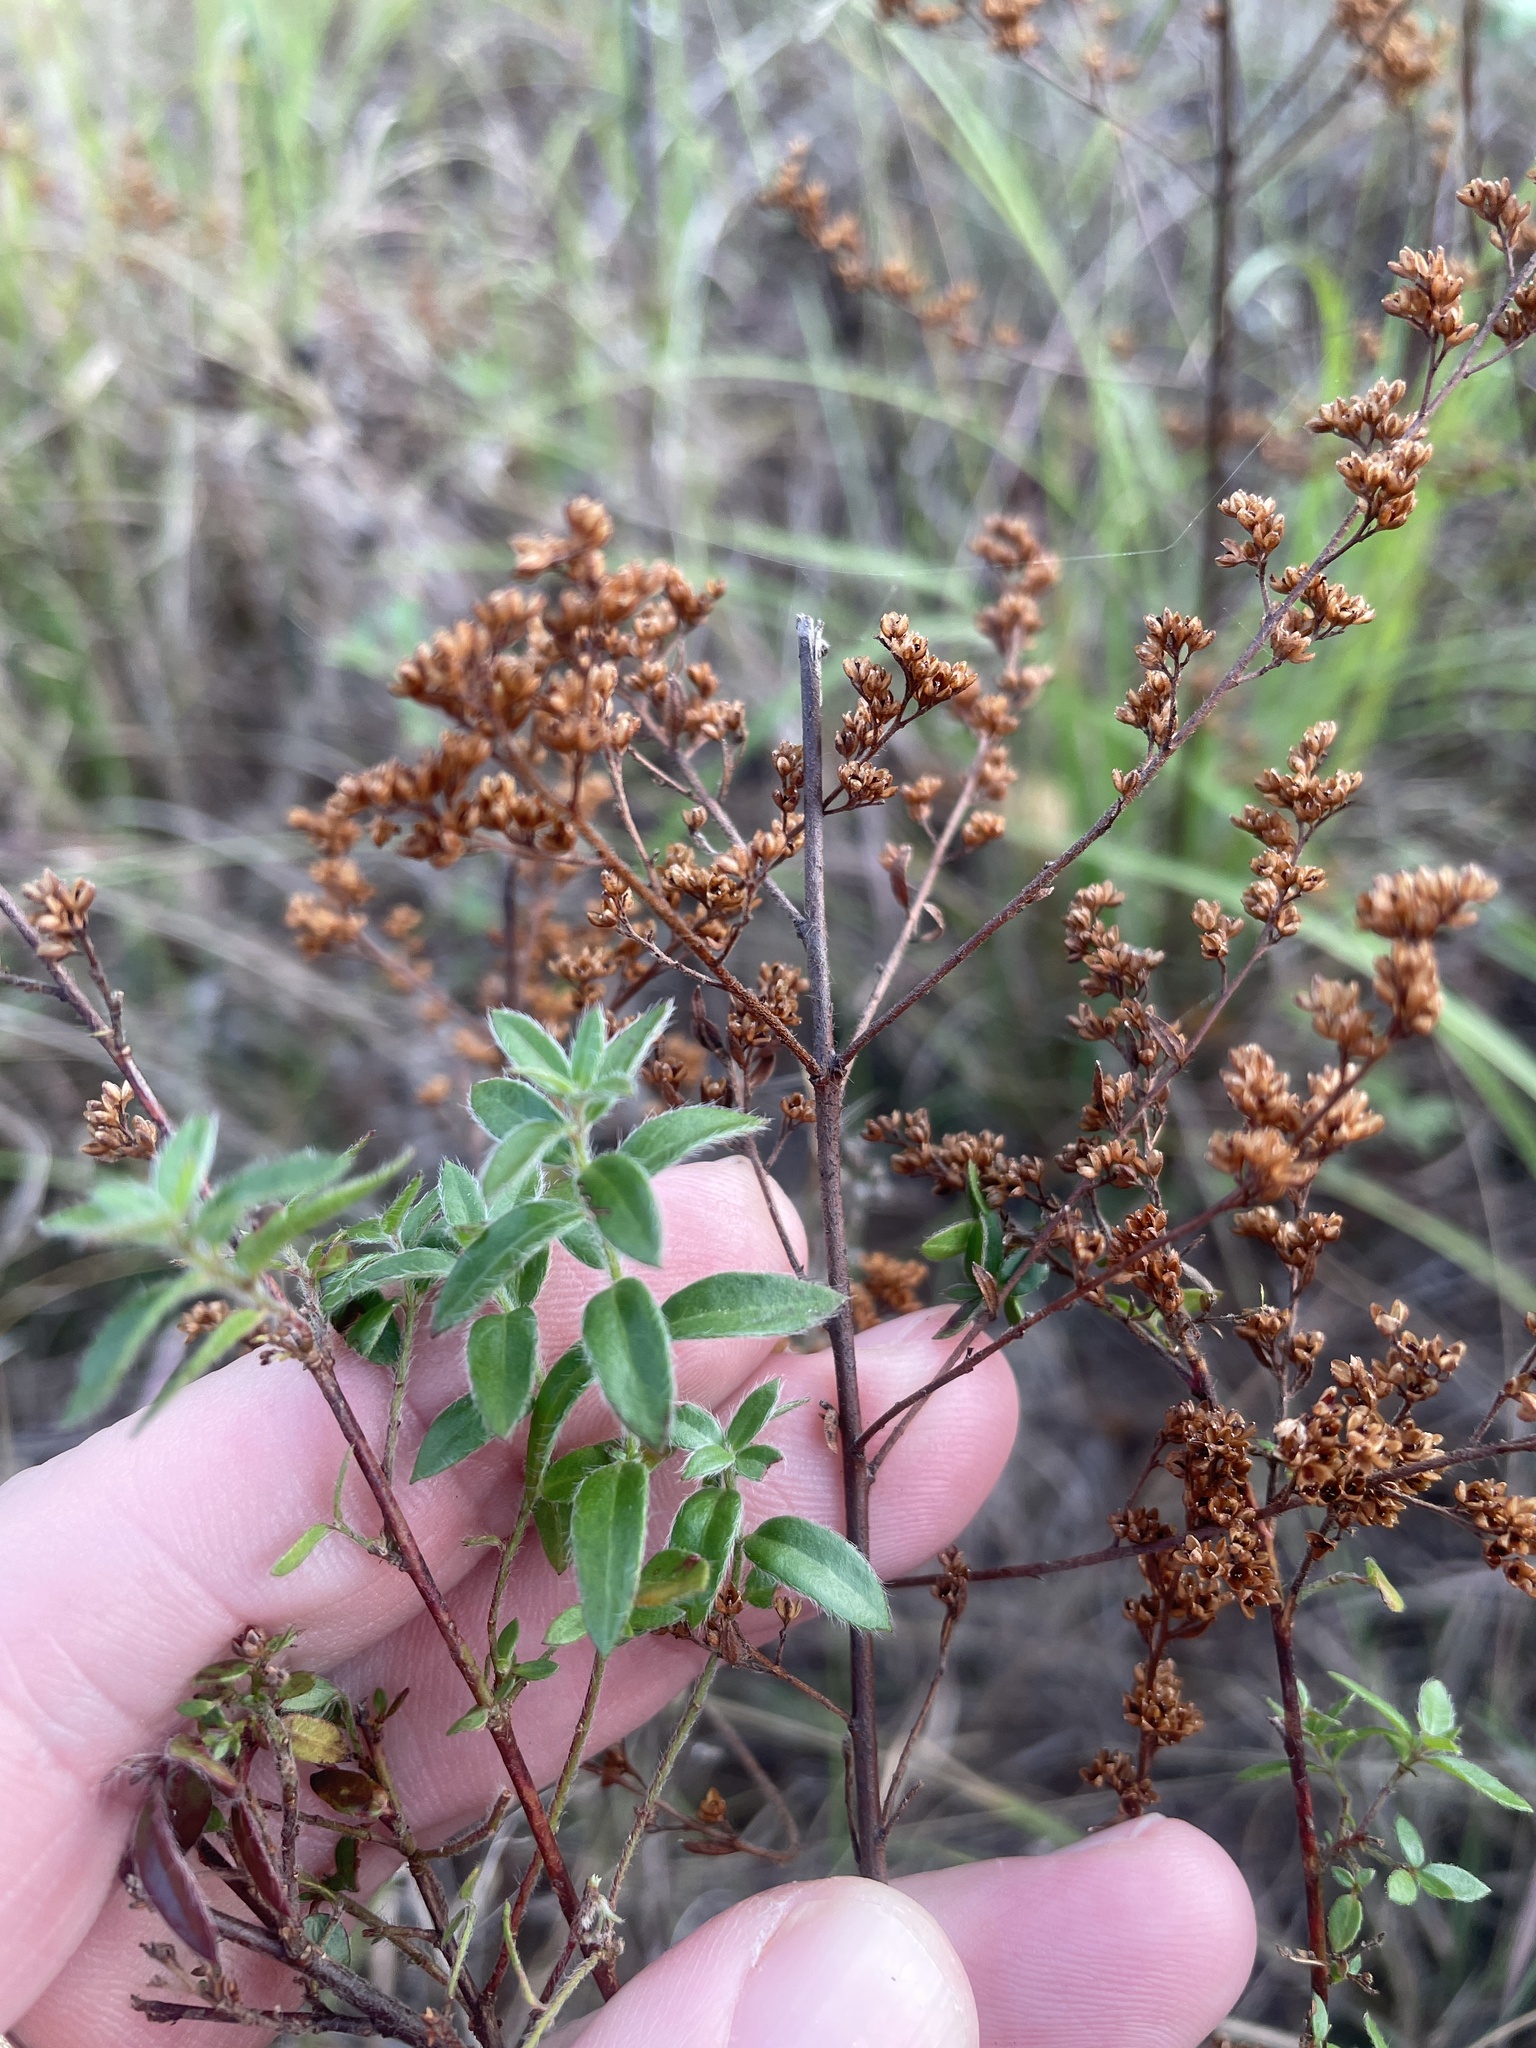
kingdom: Plantae
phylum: Tracheophyta
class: Magnoliopsida
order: Malvales
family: Cistaceae
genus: Lechea
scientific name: Lechea mucronata
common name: Hairy pinweed
